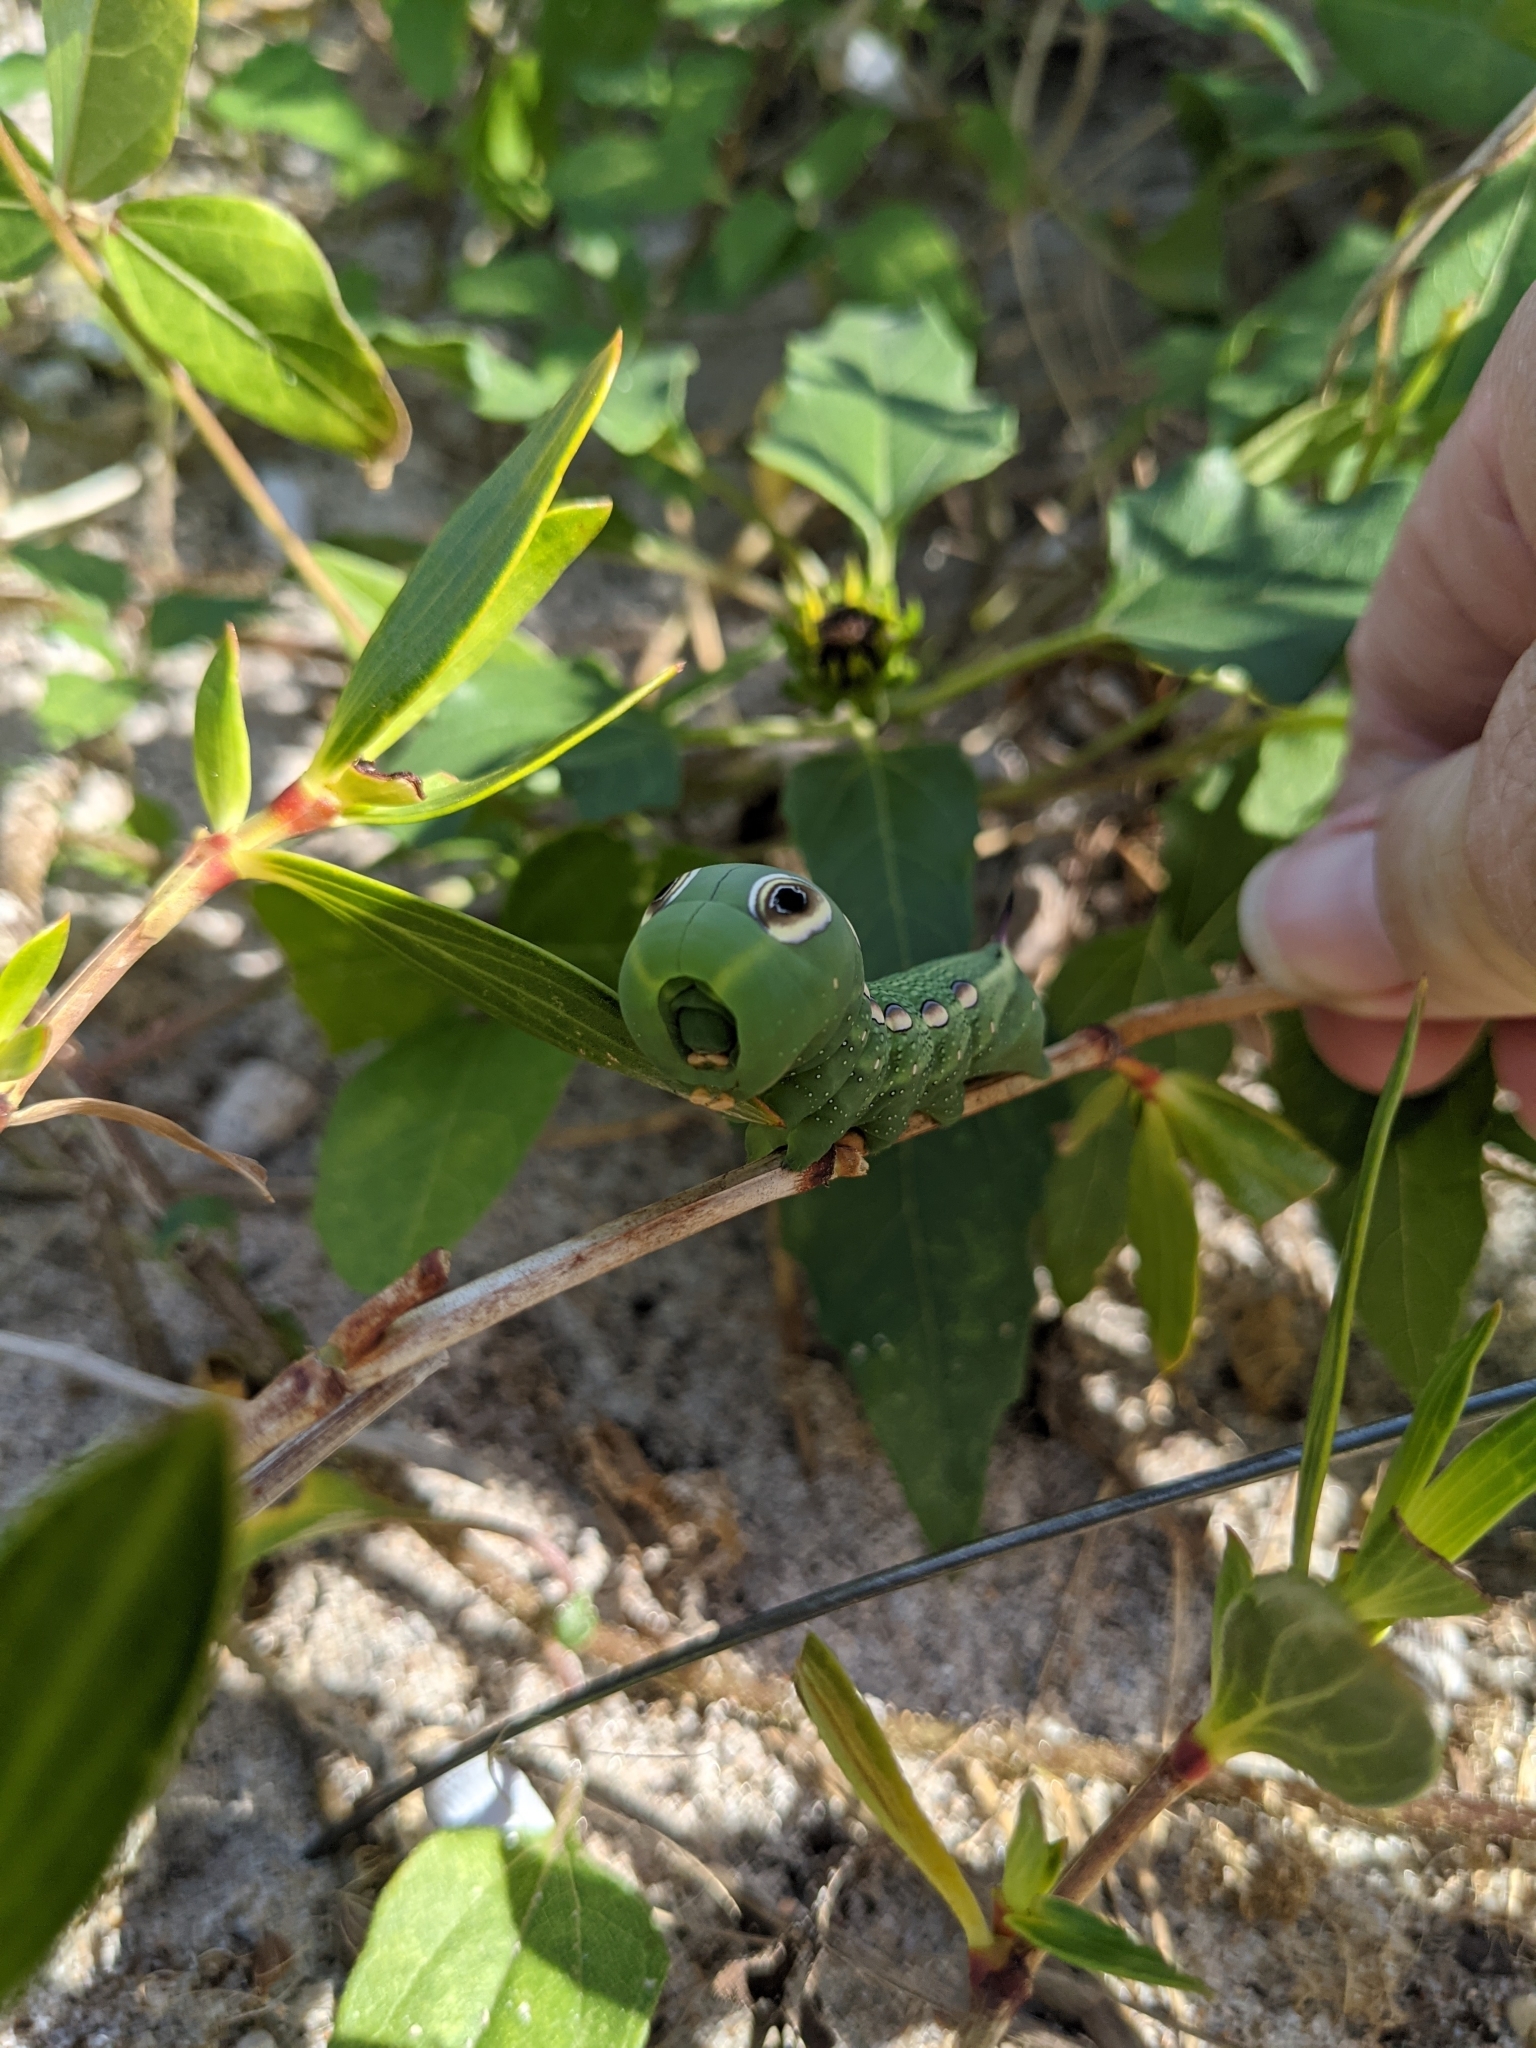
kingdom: Animalia
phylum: Arthropoda
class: Insecta
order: Lepidoptera
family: Sphingidae
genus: Xylophanes
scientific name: Xylophanes tersa
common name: Tersa sphinx
